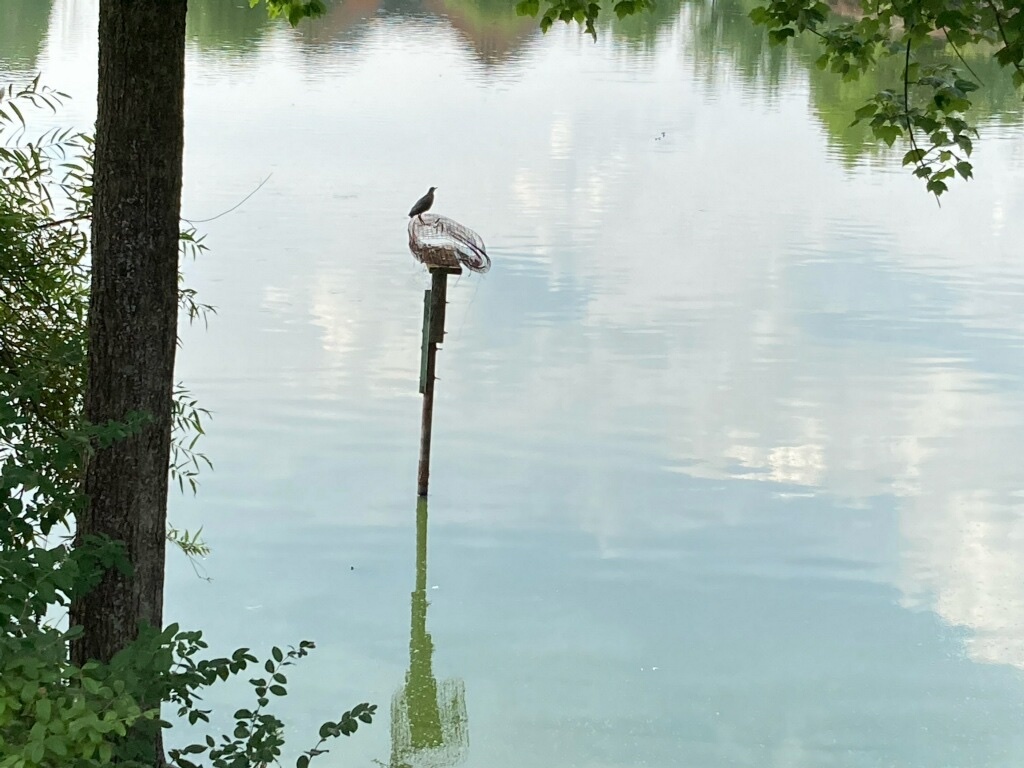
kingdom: Animalia
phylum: Chordata
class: Aves
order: Pelecaniformes
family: Ardeidae
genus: Butorides
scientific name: Butorides virescens
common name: Green heron
